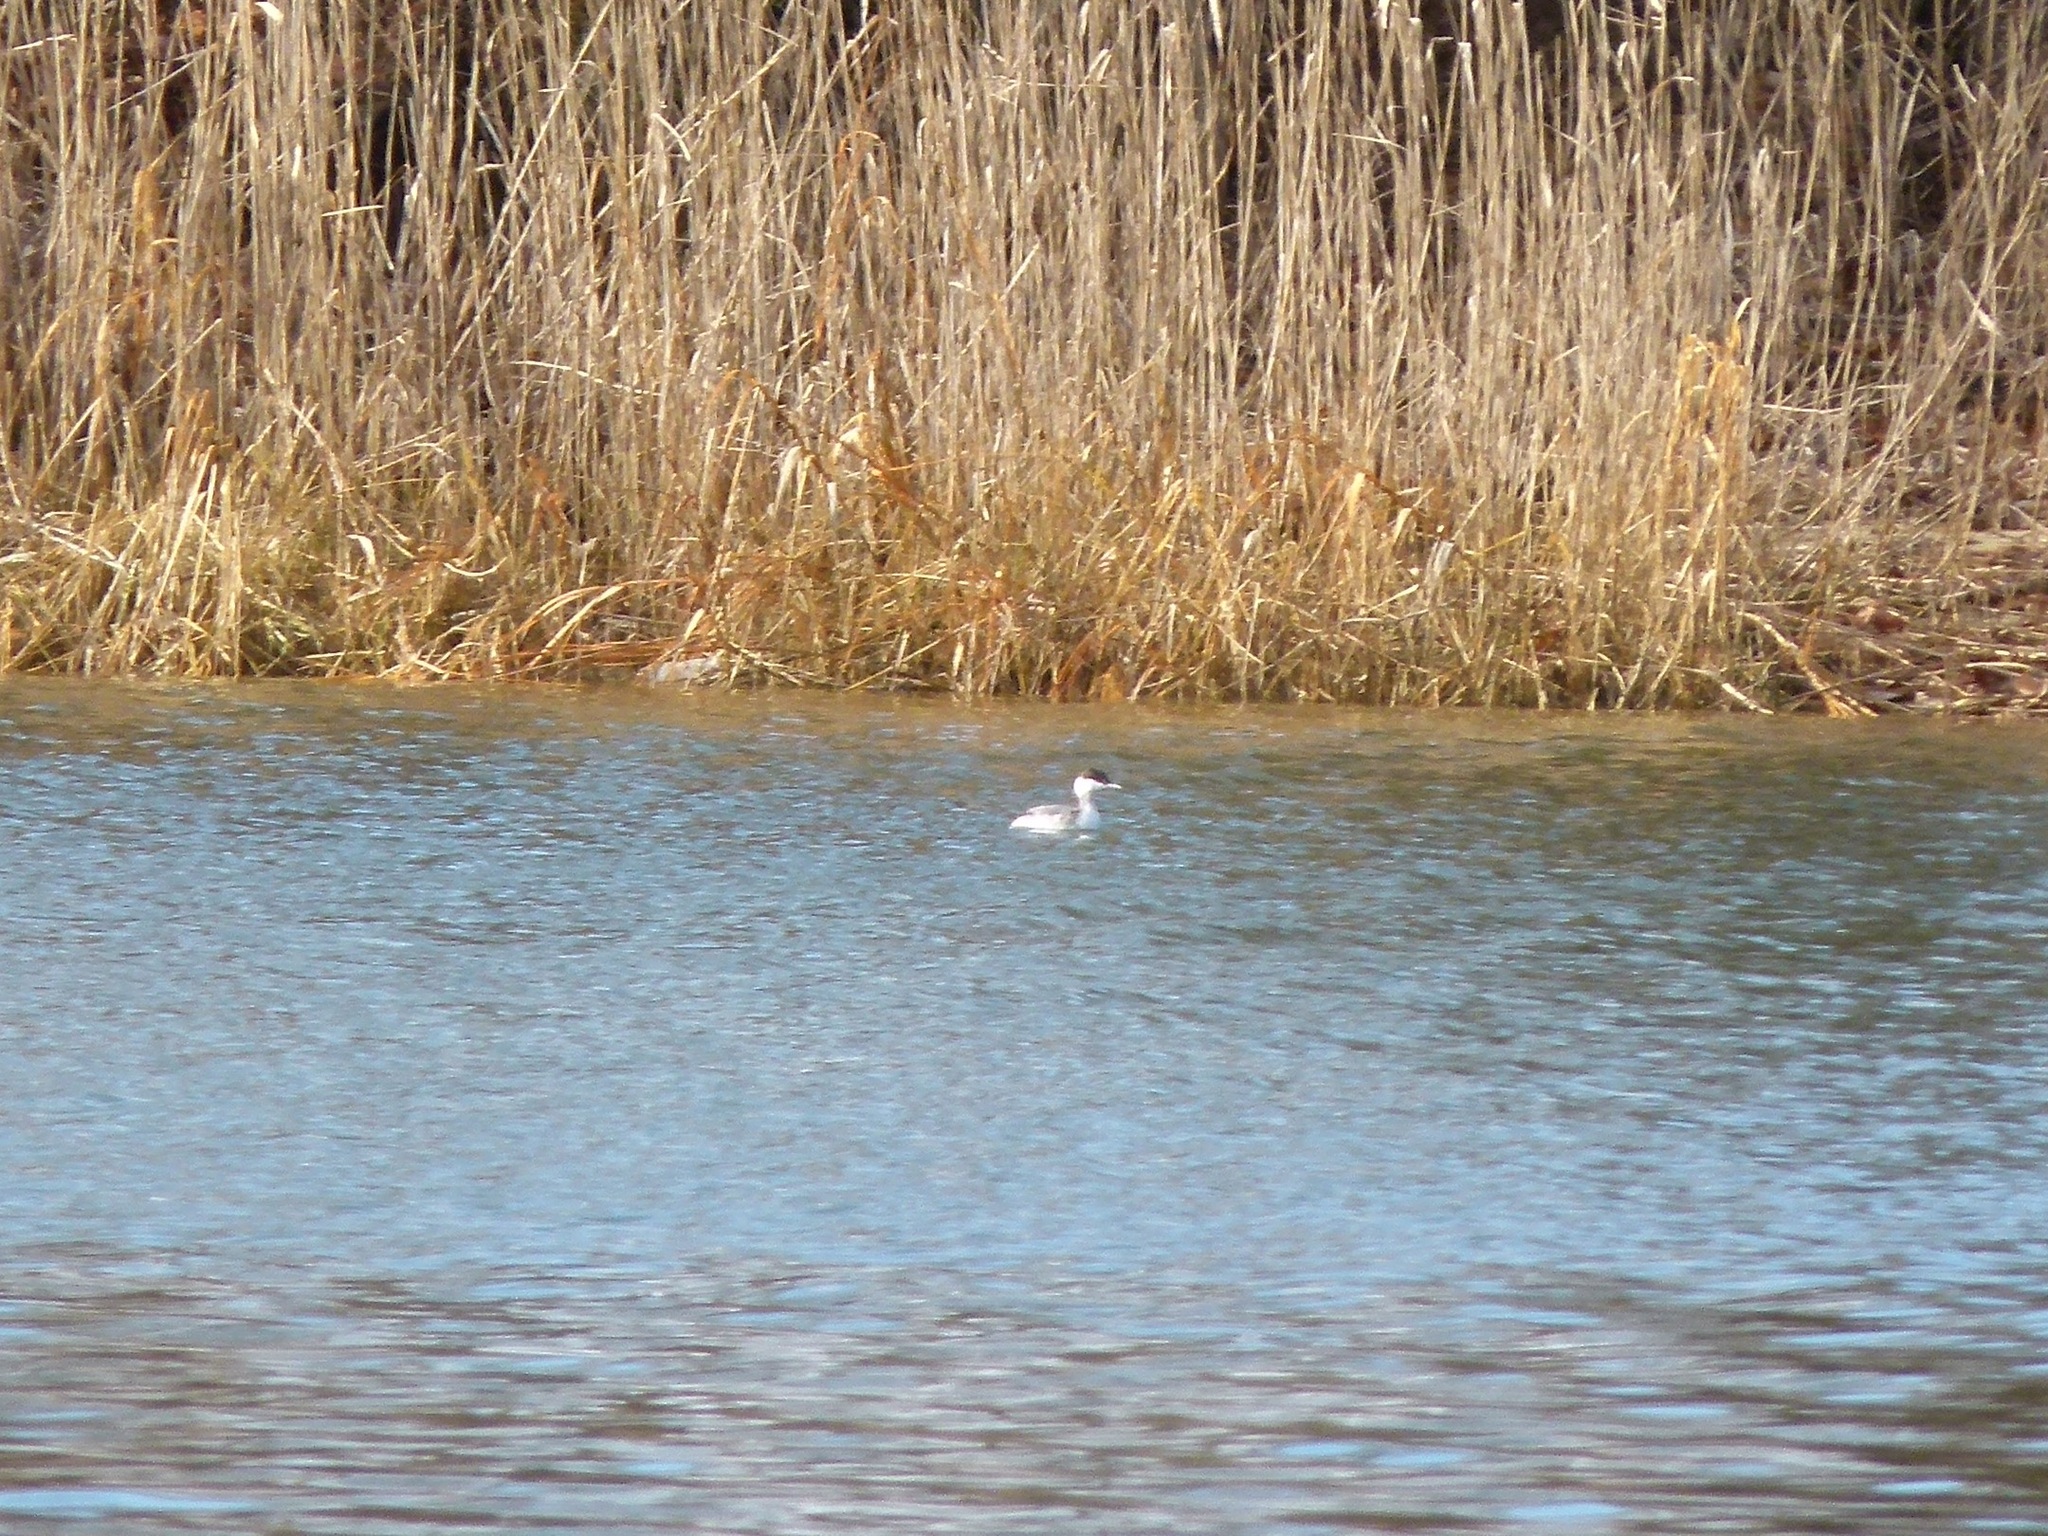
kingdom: Animalia
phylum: Chordata
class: Aves
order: Podicipediformes
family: Podicipedidae
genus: Podiceps
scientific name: Podiceps auritus
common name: Horned grebe
